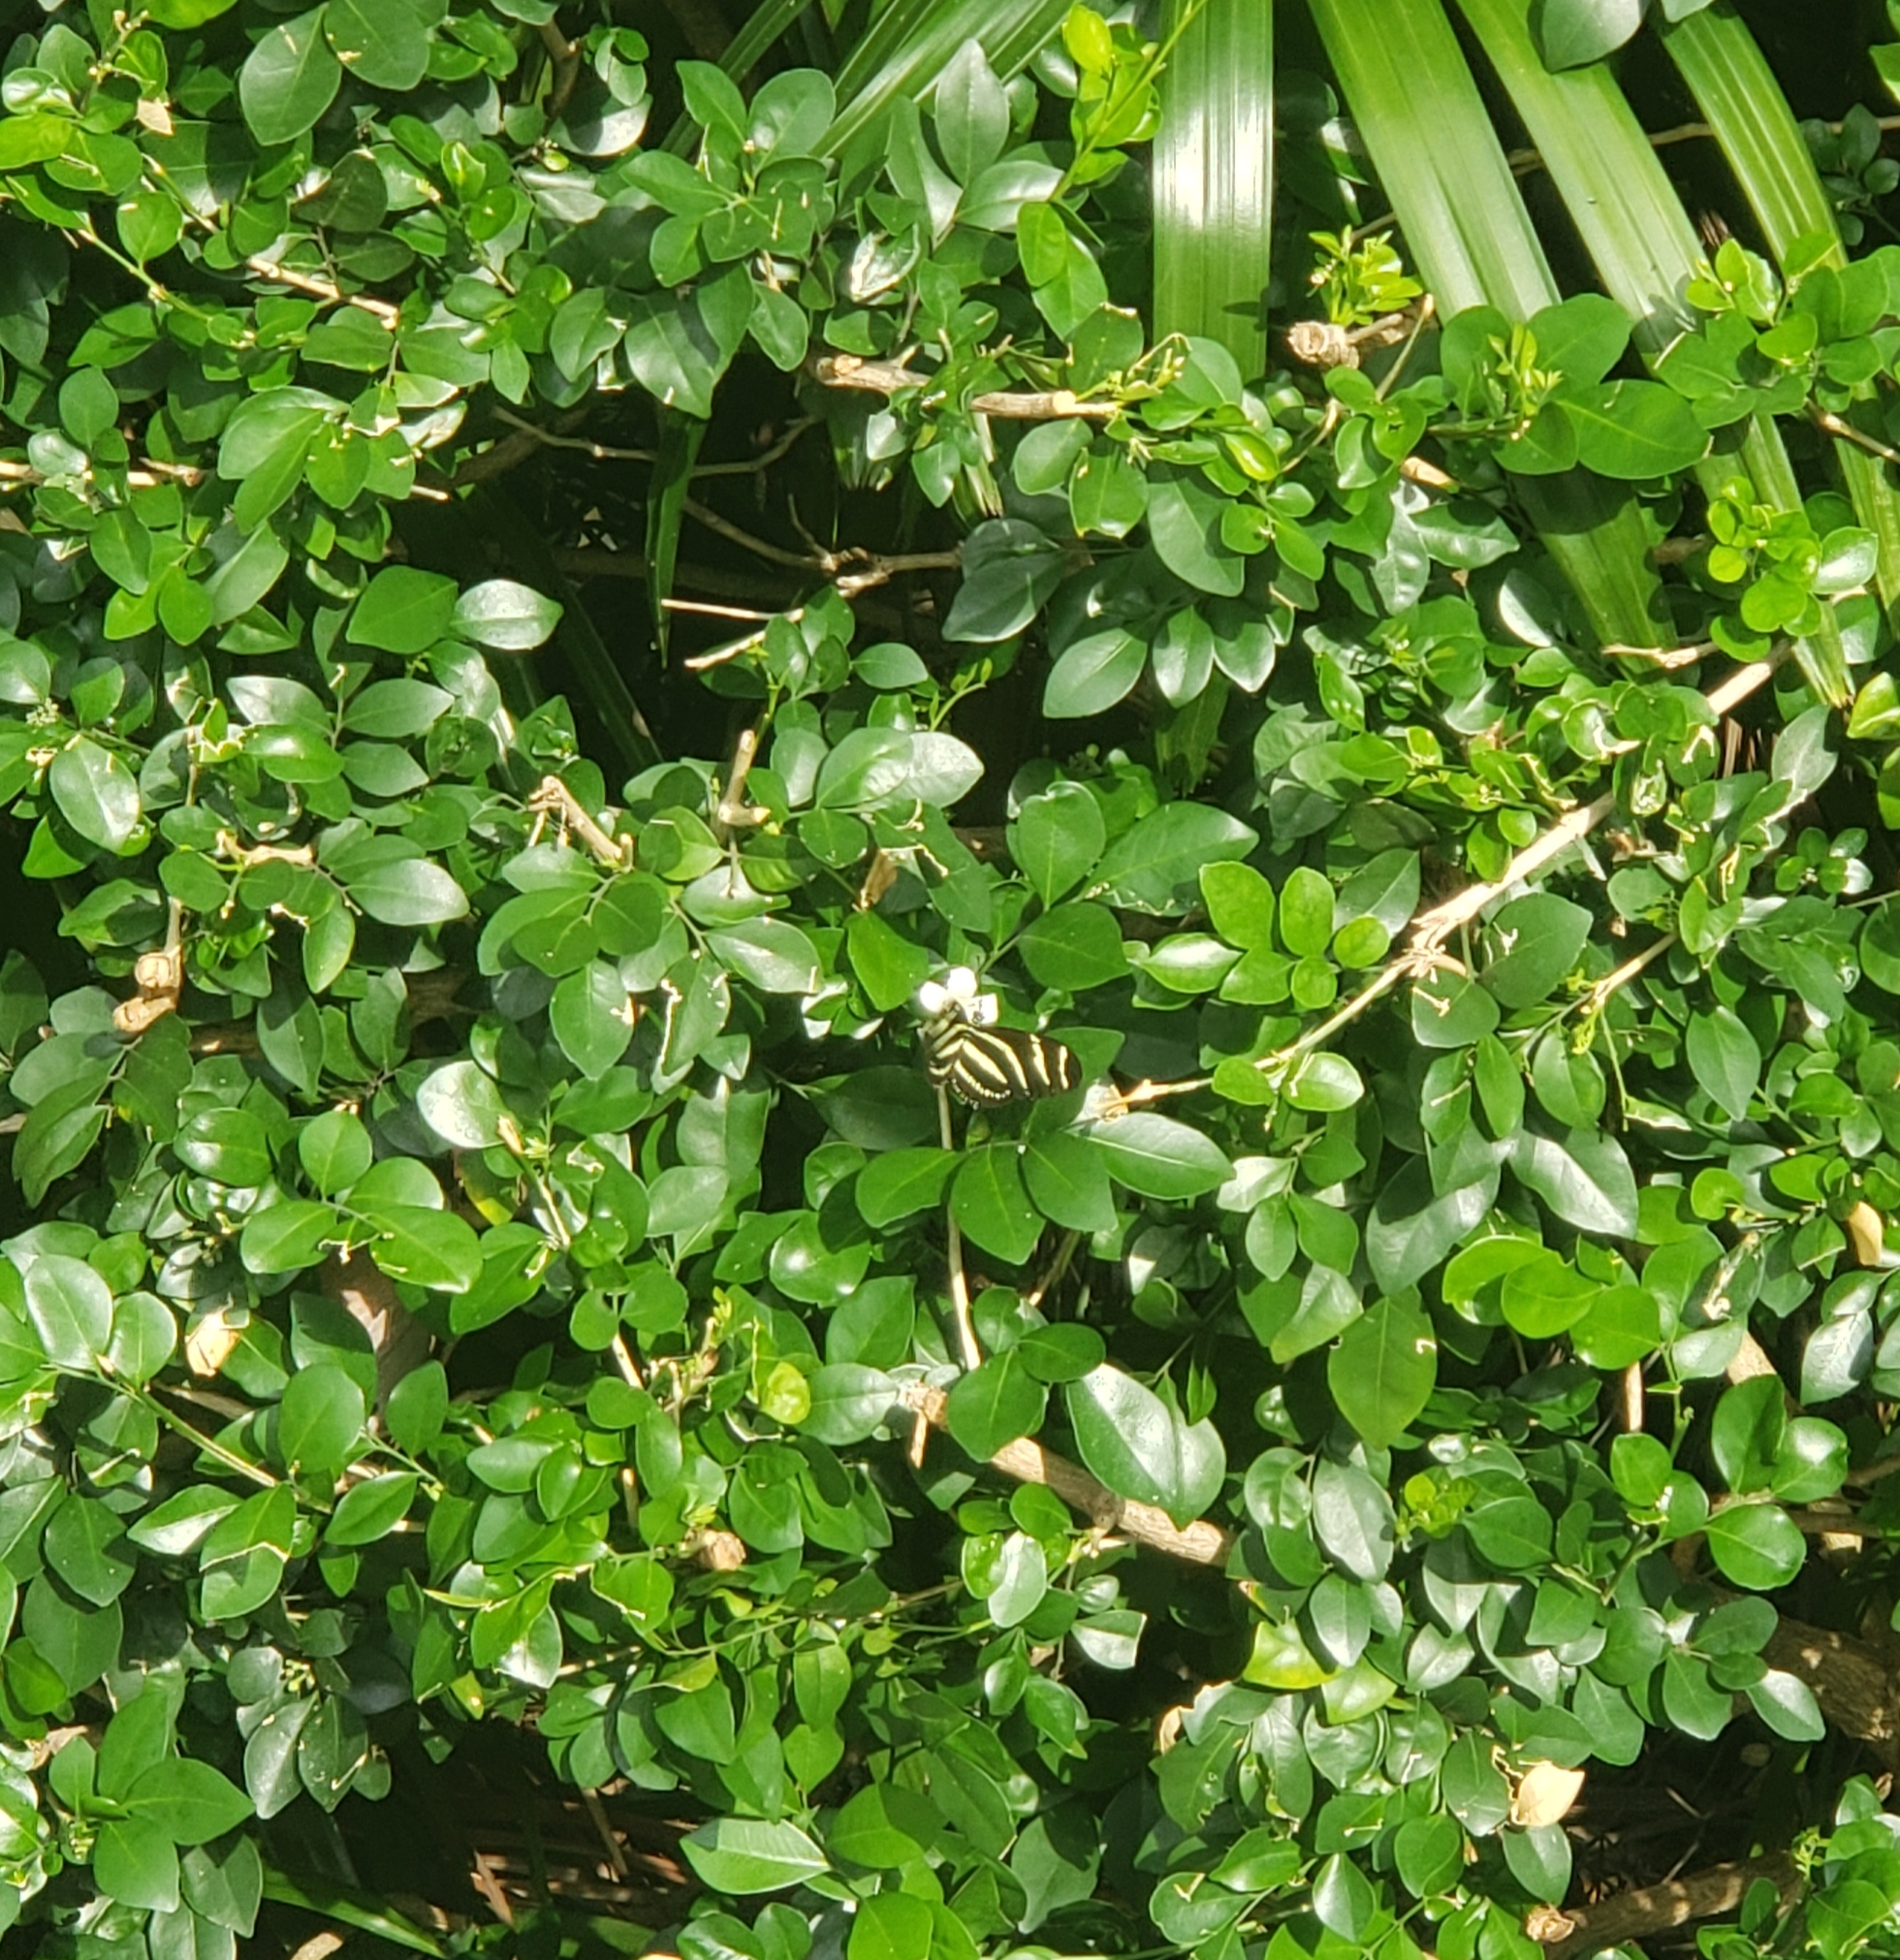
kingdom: Animalia
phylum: Arthropoda
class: Insecta
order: Lepidoptera
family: Nymphalidae
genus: Heliconius
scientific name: Heliconius charithonia
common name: Zebra long wing
